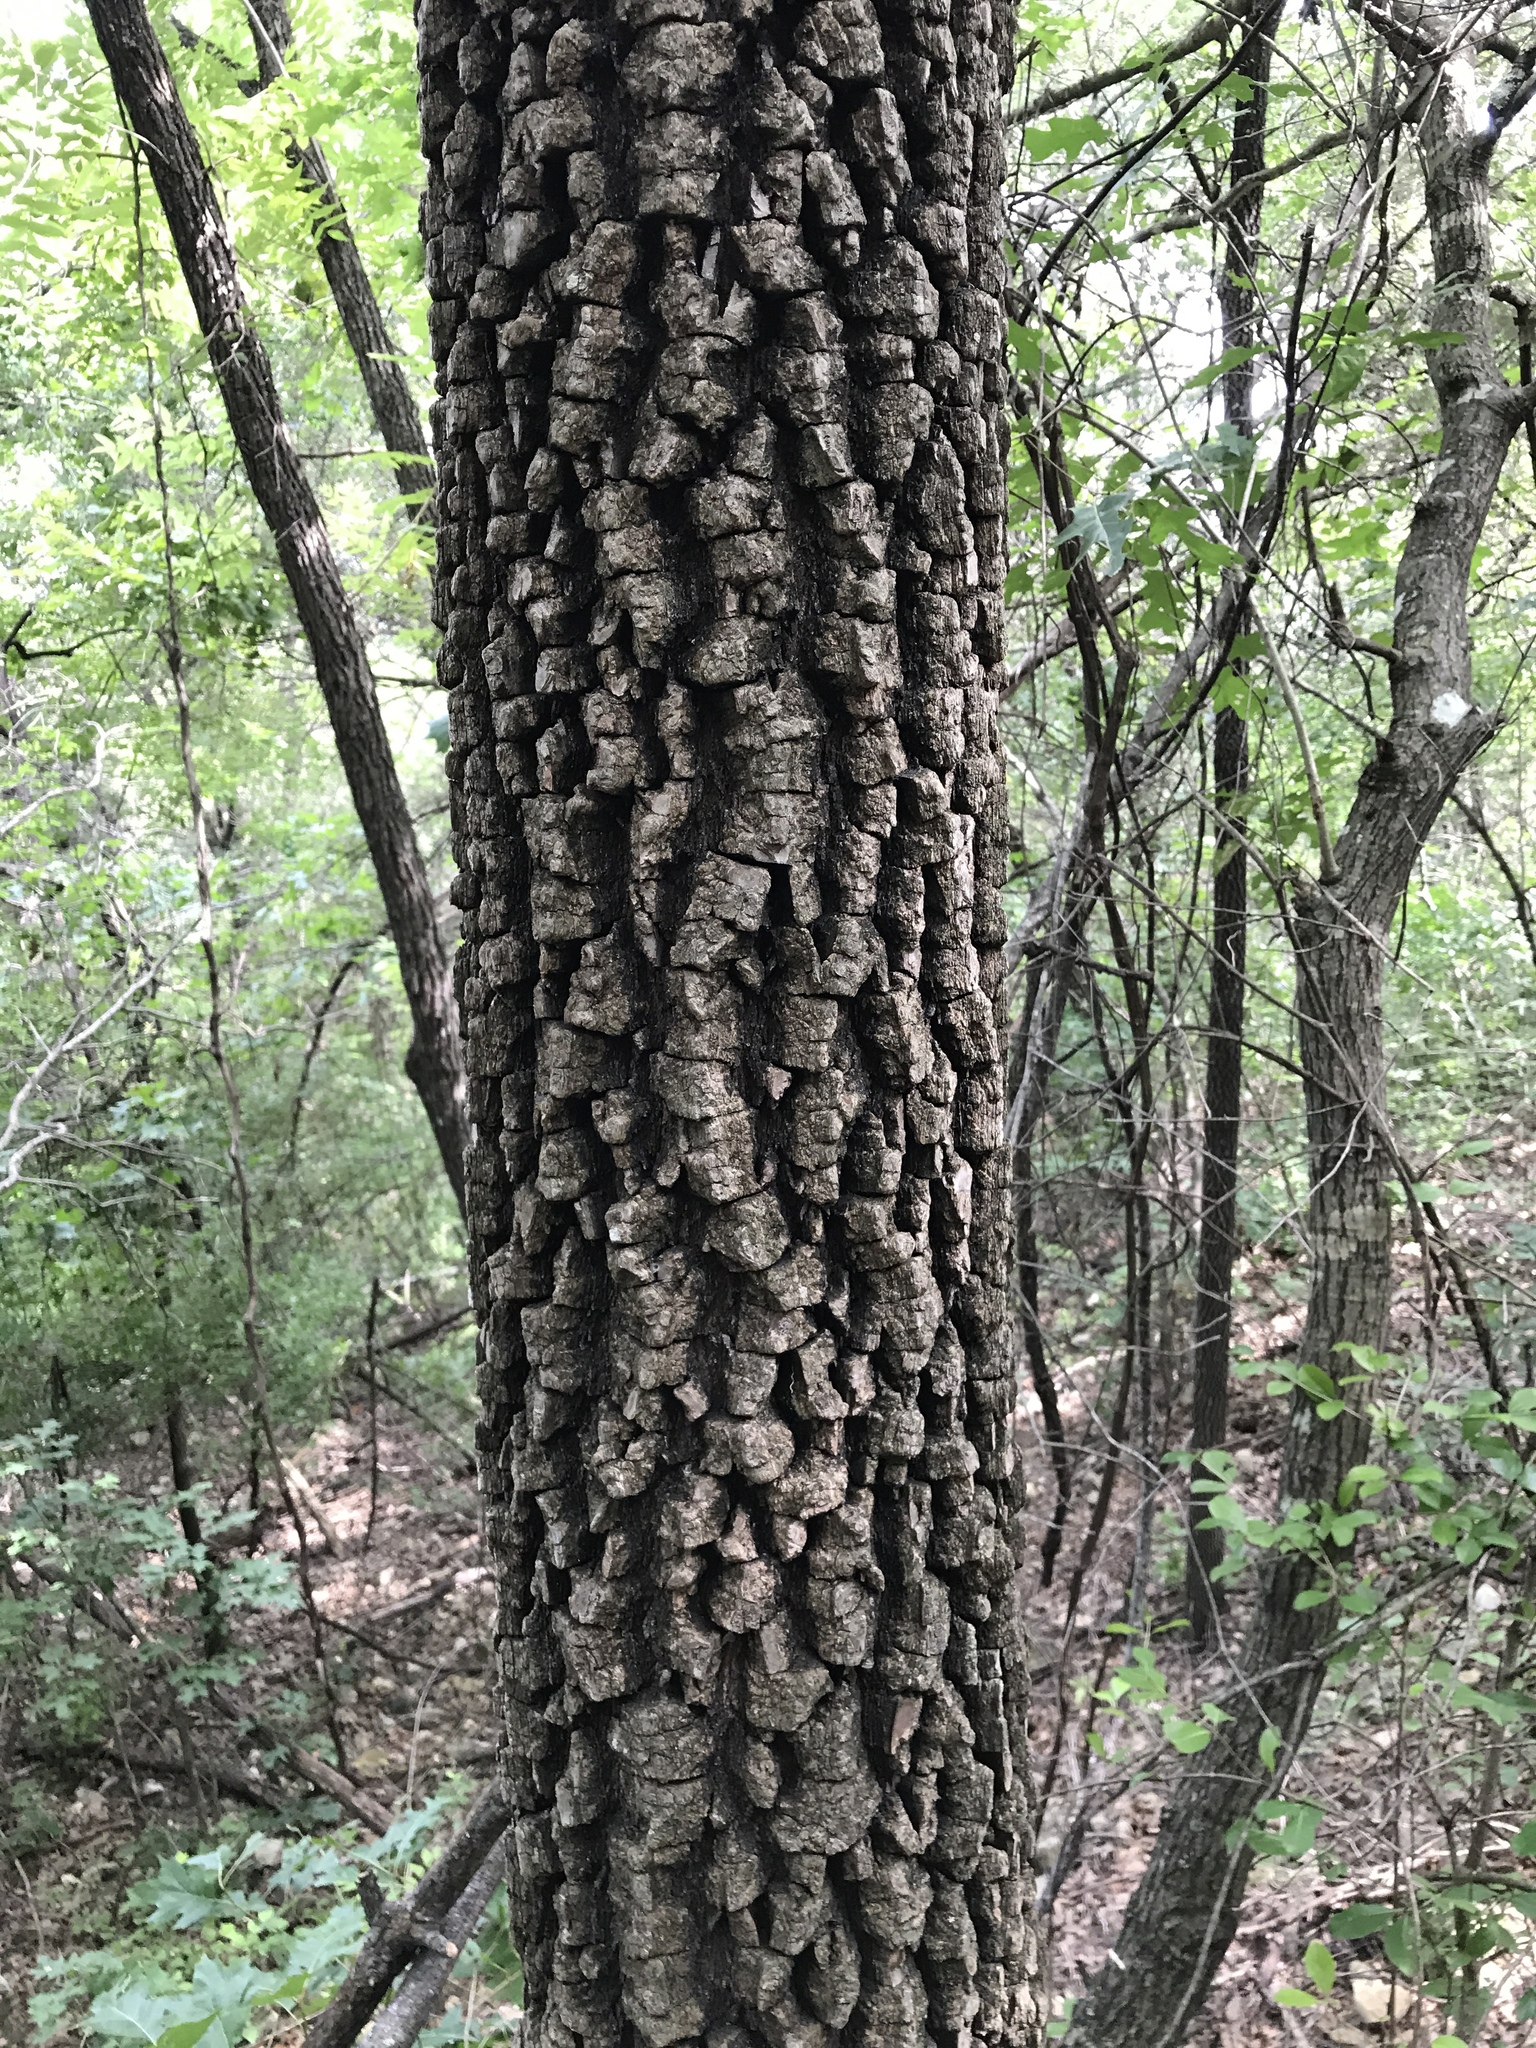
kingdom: Plantae
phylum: Tracheophyta
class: Magnoliopsida
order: Ericales
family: Ebenaceae
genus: Diospyros
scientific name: Diospyros virginiana
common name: Persimmon
